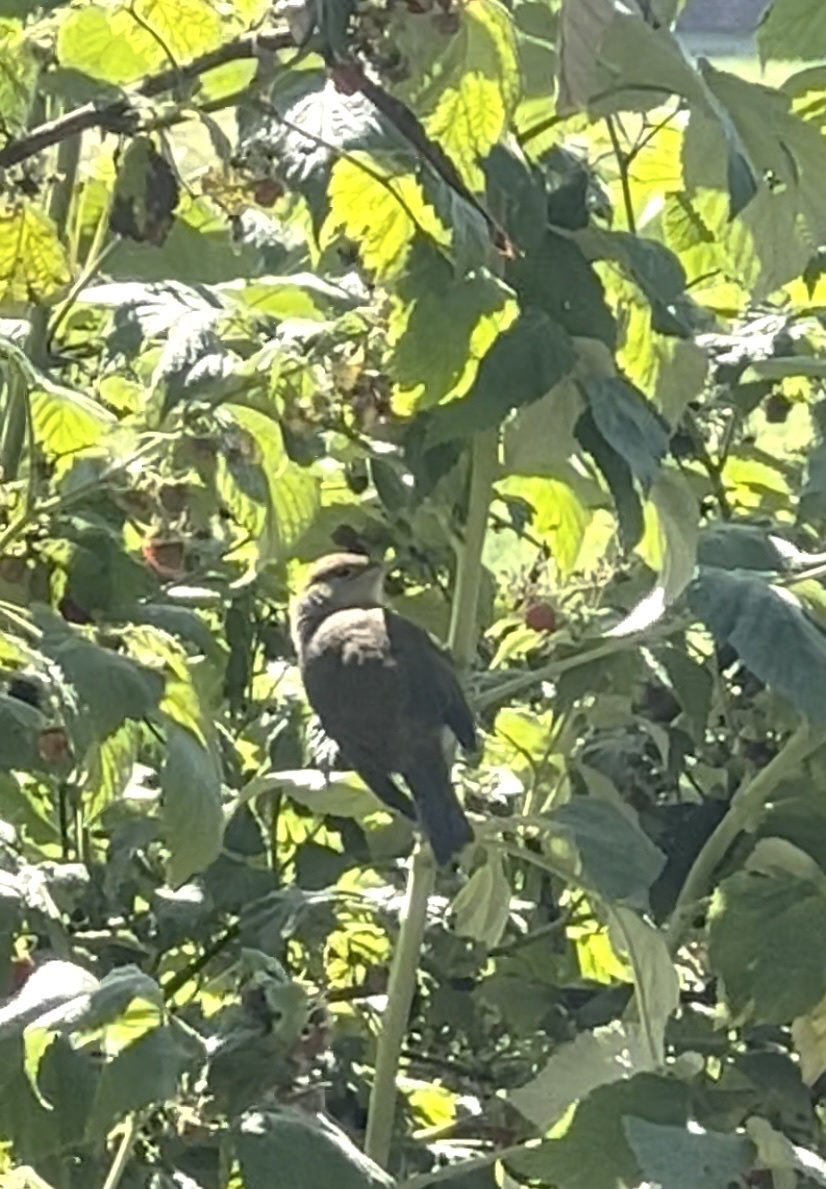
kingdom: Animalia
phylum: Chordata
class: Aves
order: Passeriformes
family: Sylviidae
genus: Sylvia
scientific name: Sylvia atricapilla
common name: Eurasian blackcap
